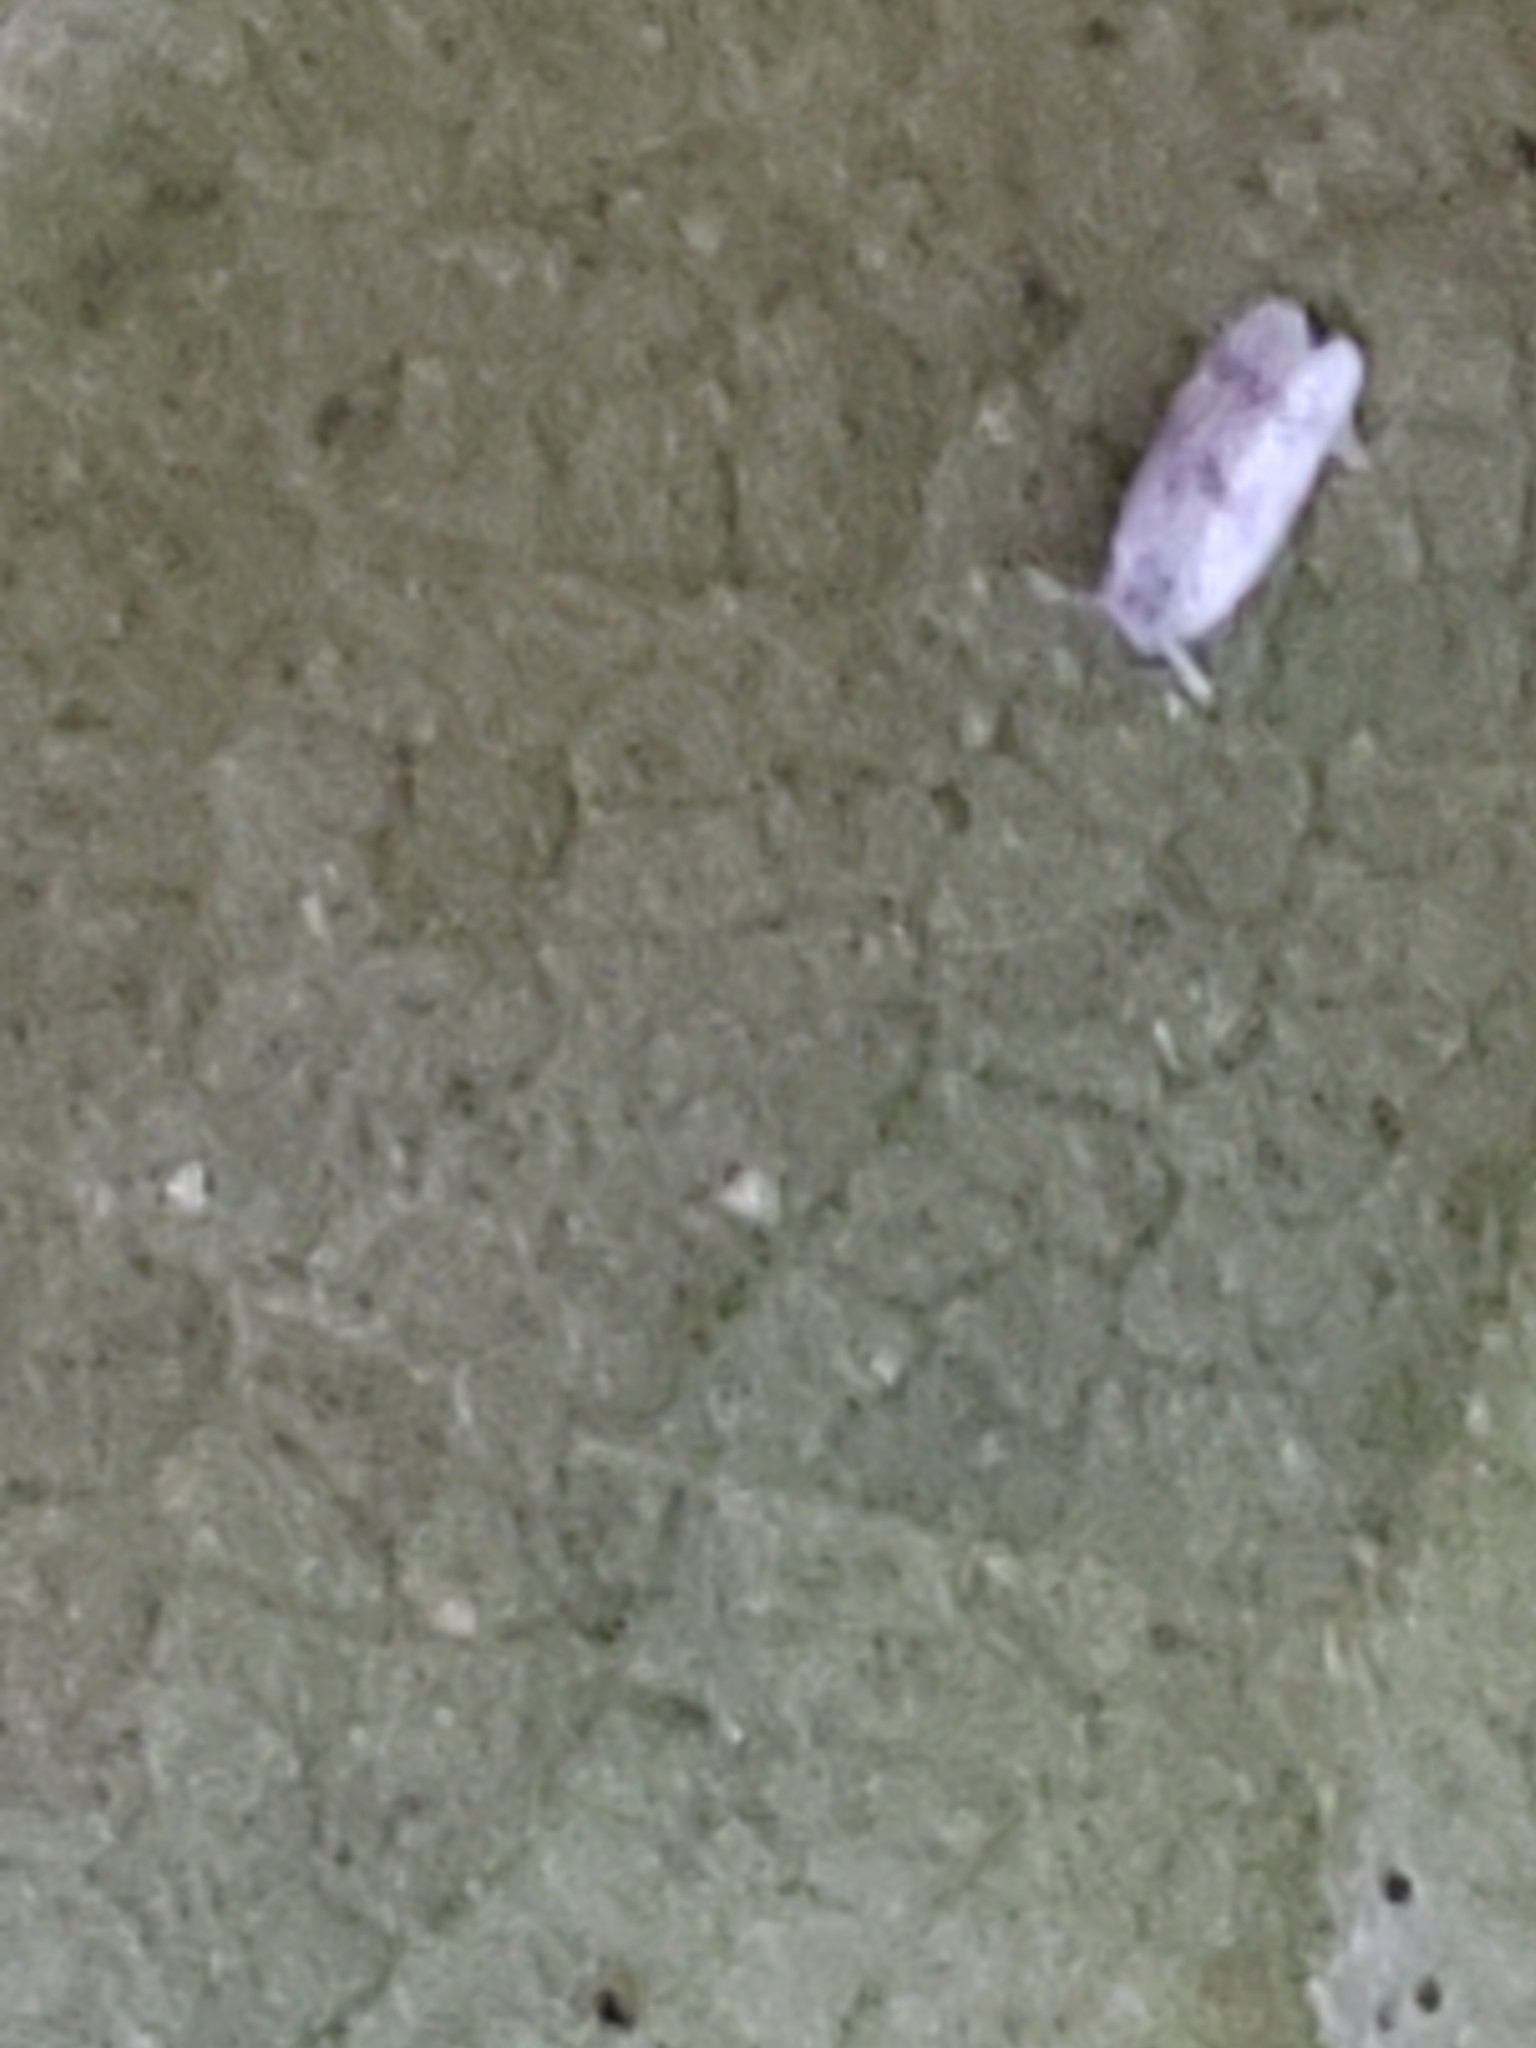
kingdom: Animalia
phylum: Arthropoda
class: Insecta
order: Hemiptera
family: Aleyrodidae
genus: Tetraleurodes
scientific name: Tetraleurodes mori
